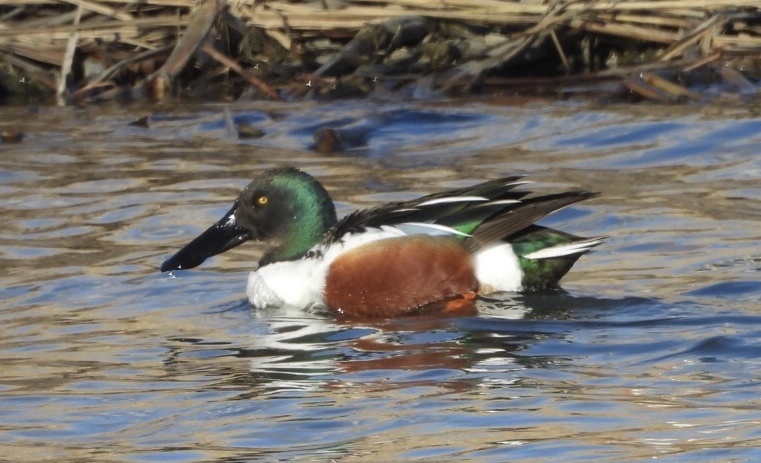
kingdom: Animalia
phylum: Chordata
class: Aves
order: Anseriformes
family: Anatidae
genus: Spatula
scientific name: Spatula clypeata
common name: Northern shoveler
